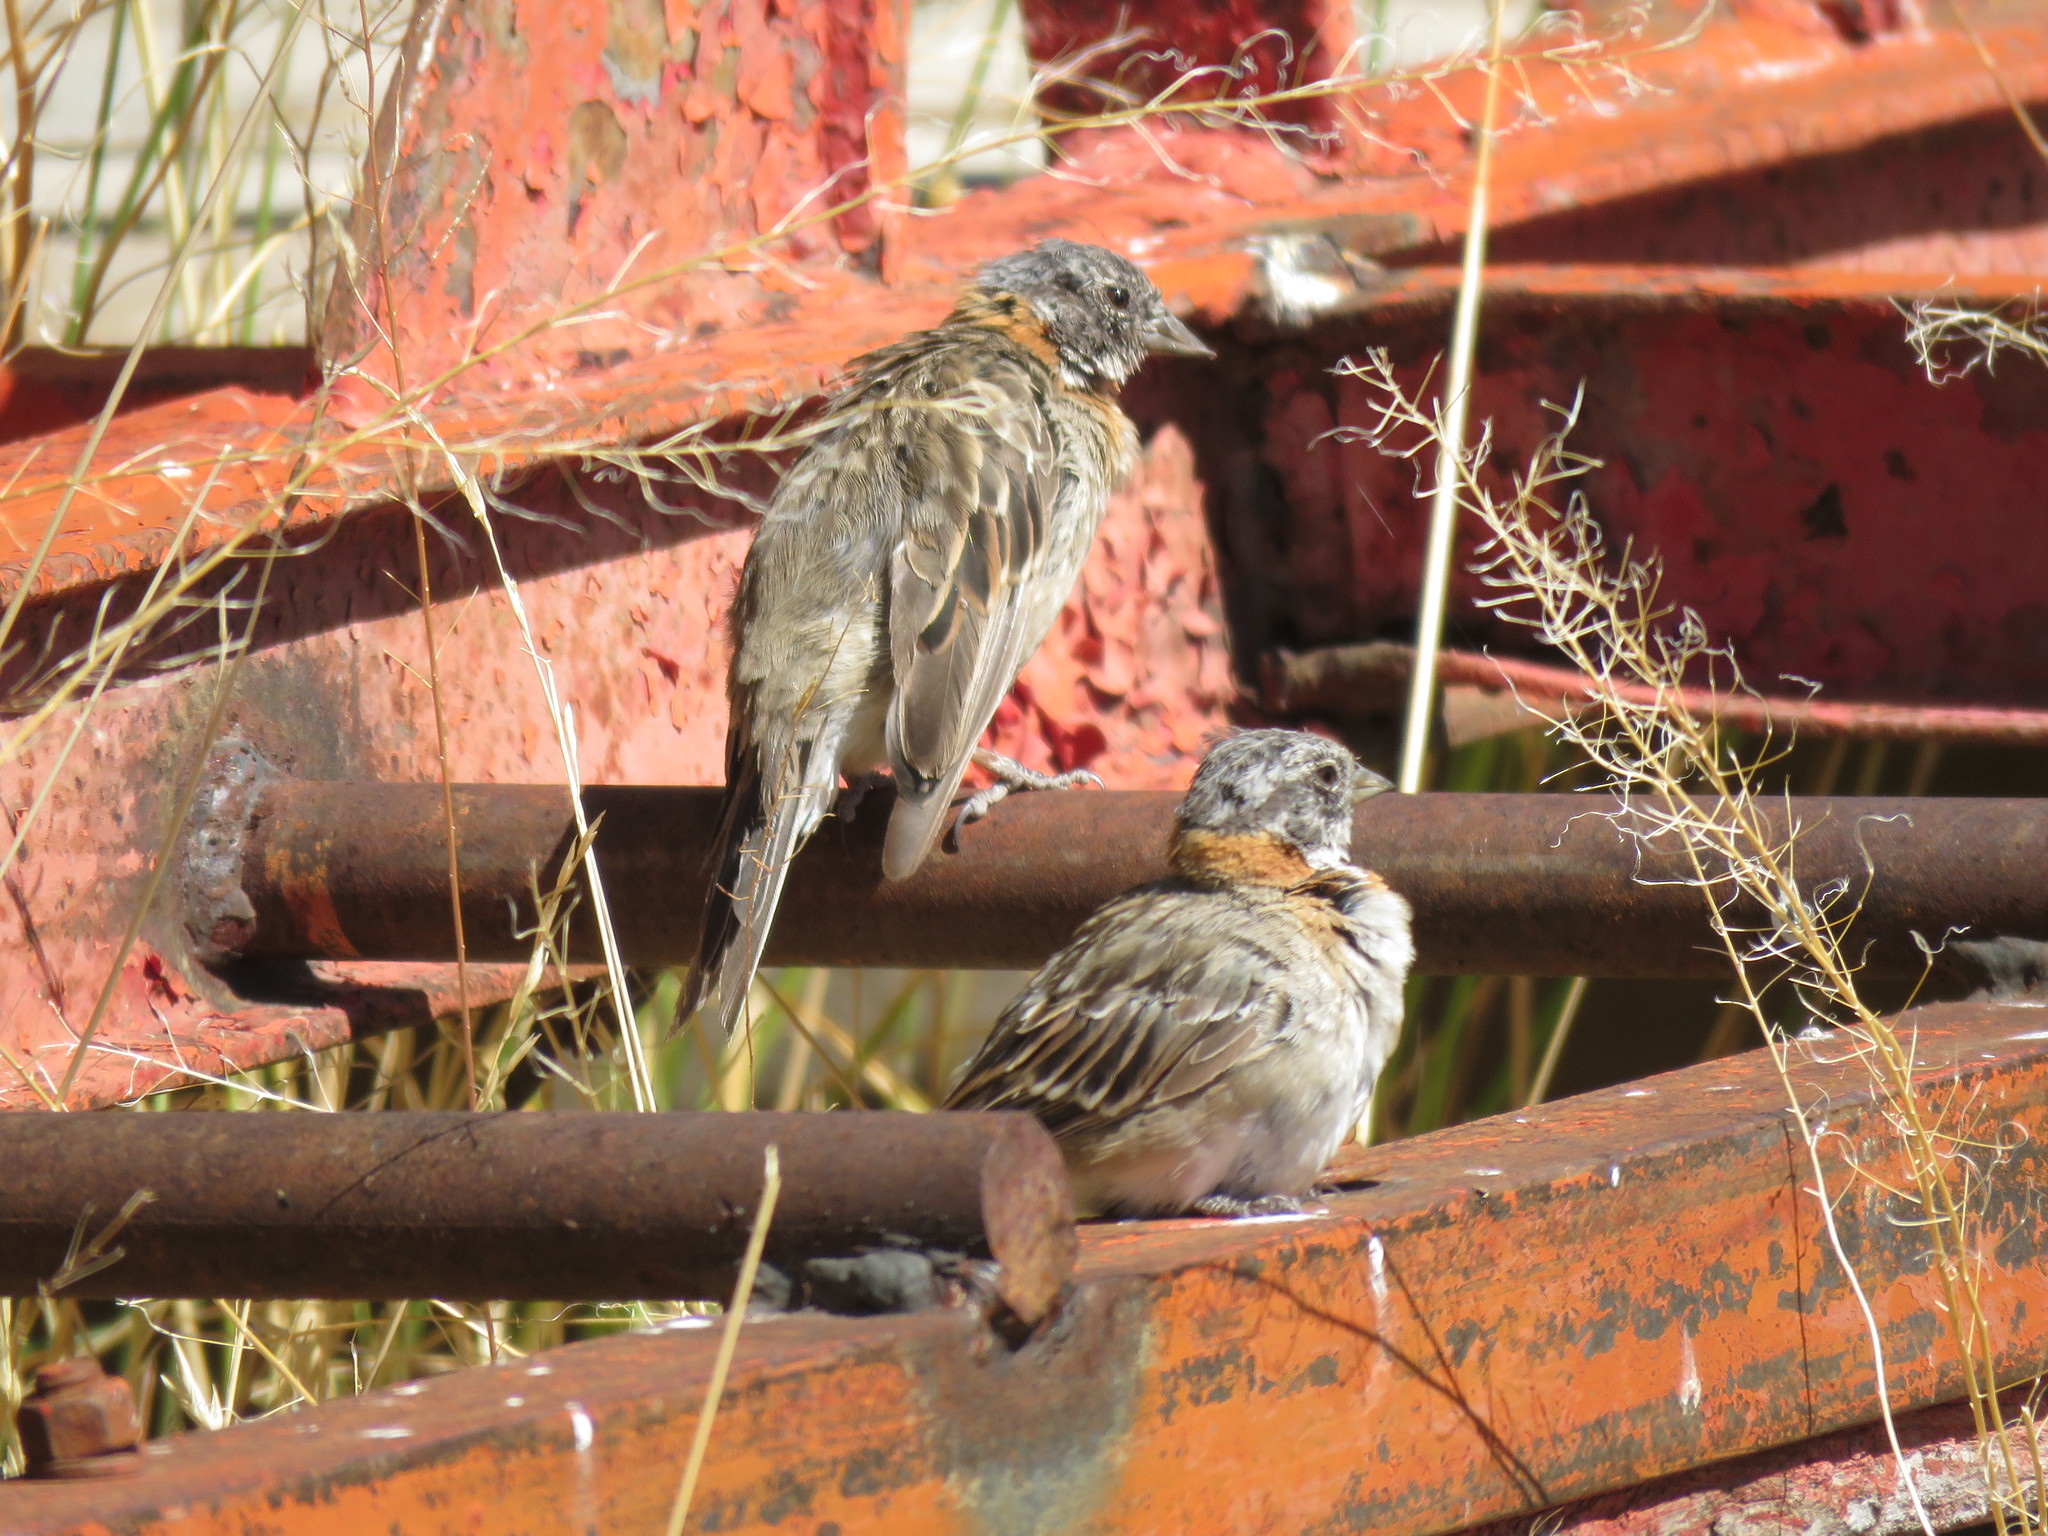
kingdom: Animalia
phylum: Chordata
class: Aves
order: Passeriformes
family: Passerellidae
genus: Zonotrichia
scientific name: Zonotrichia capensis
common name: Rufous-collared sparrow
